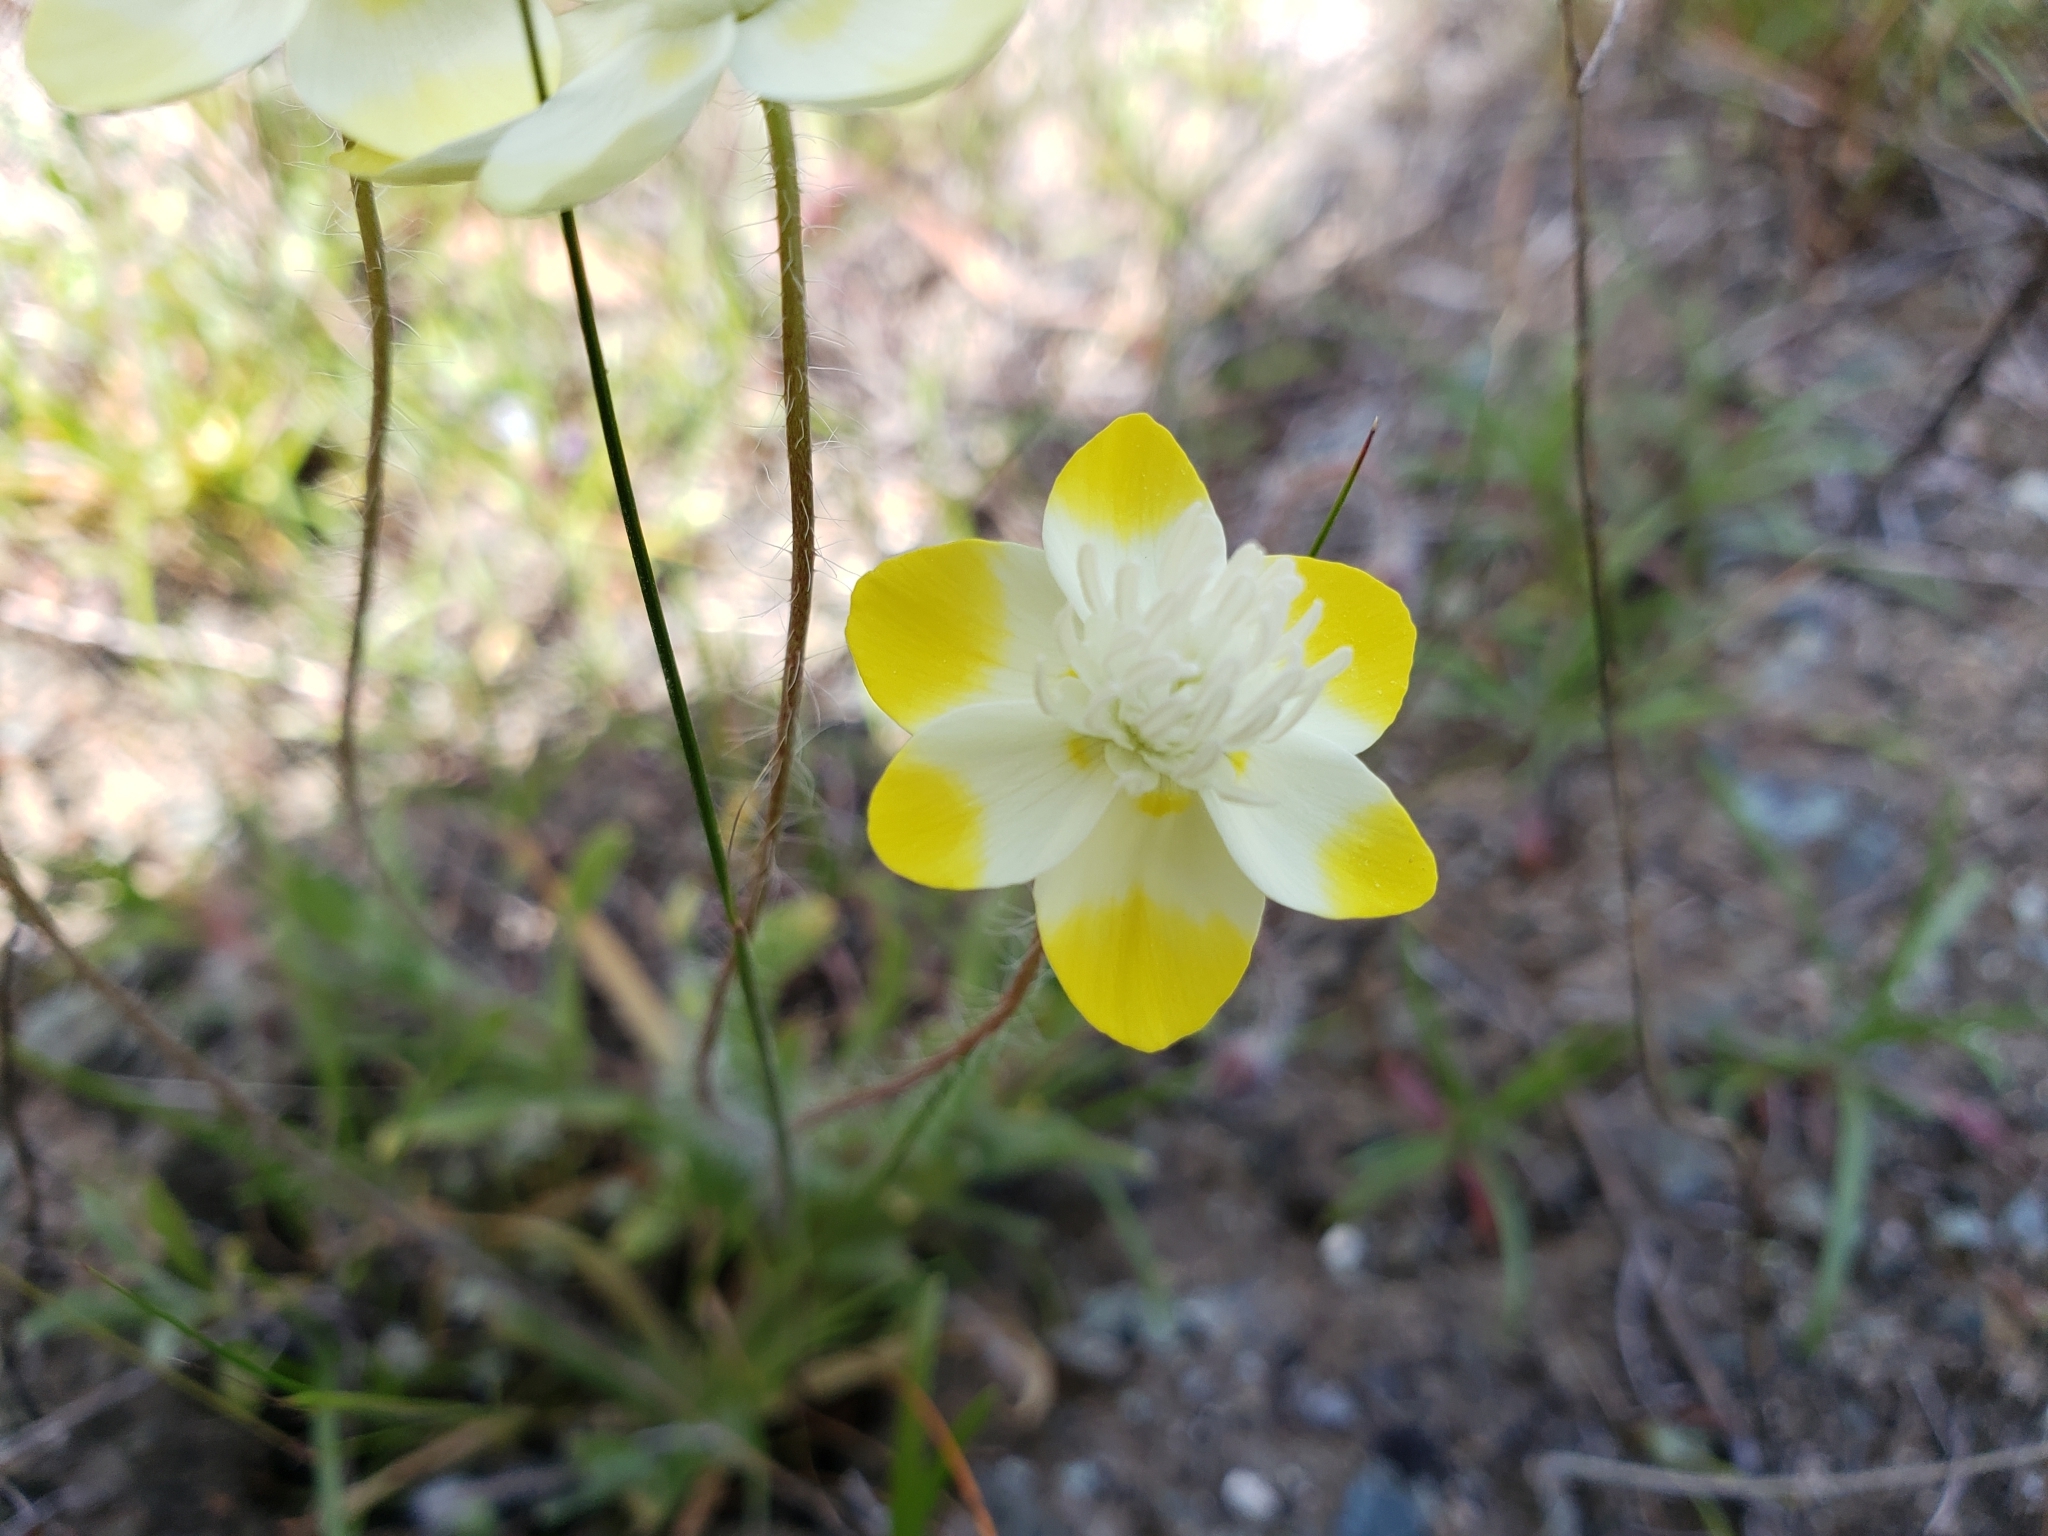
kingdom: Plantae
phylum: Tracheophyta
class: Magnoliopsida
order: Ranunculales
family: Papaveraceae
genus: Platystemon
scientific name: Platystemon californicus
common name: Cream-cups
